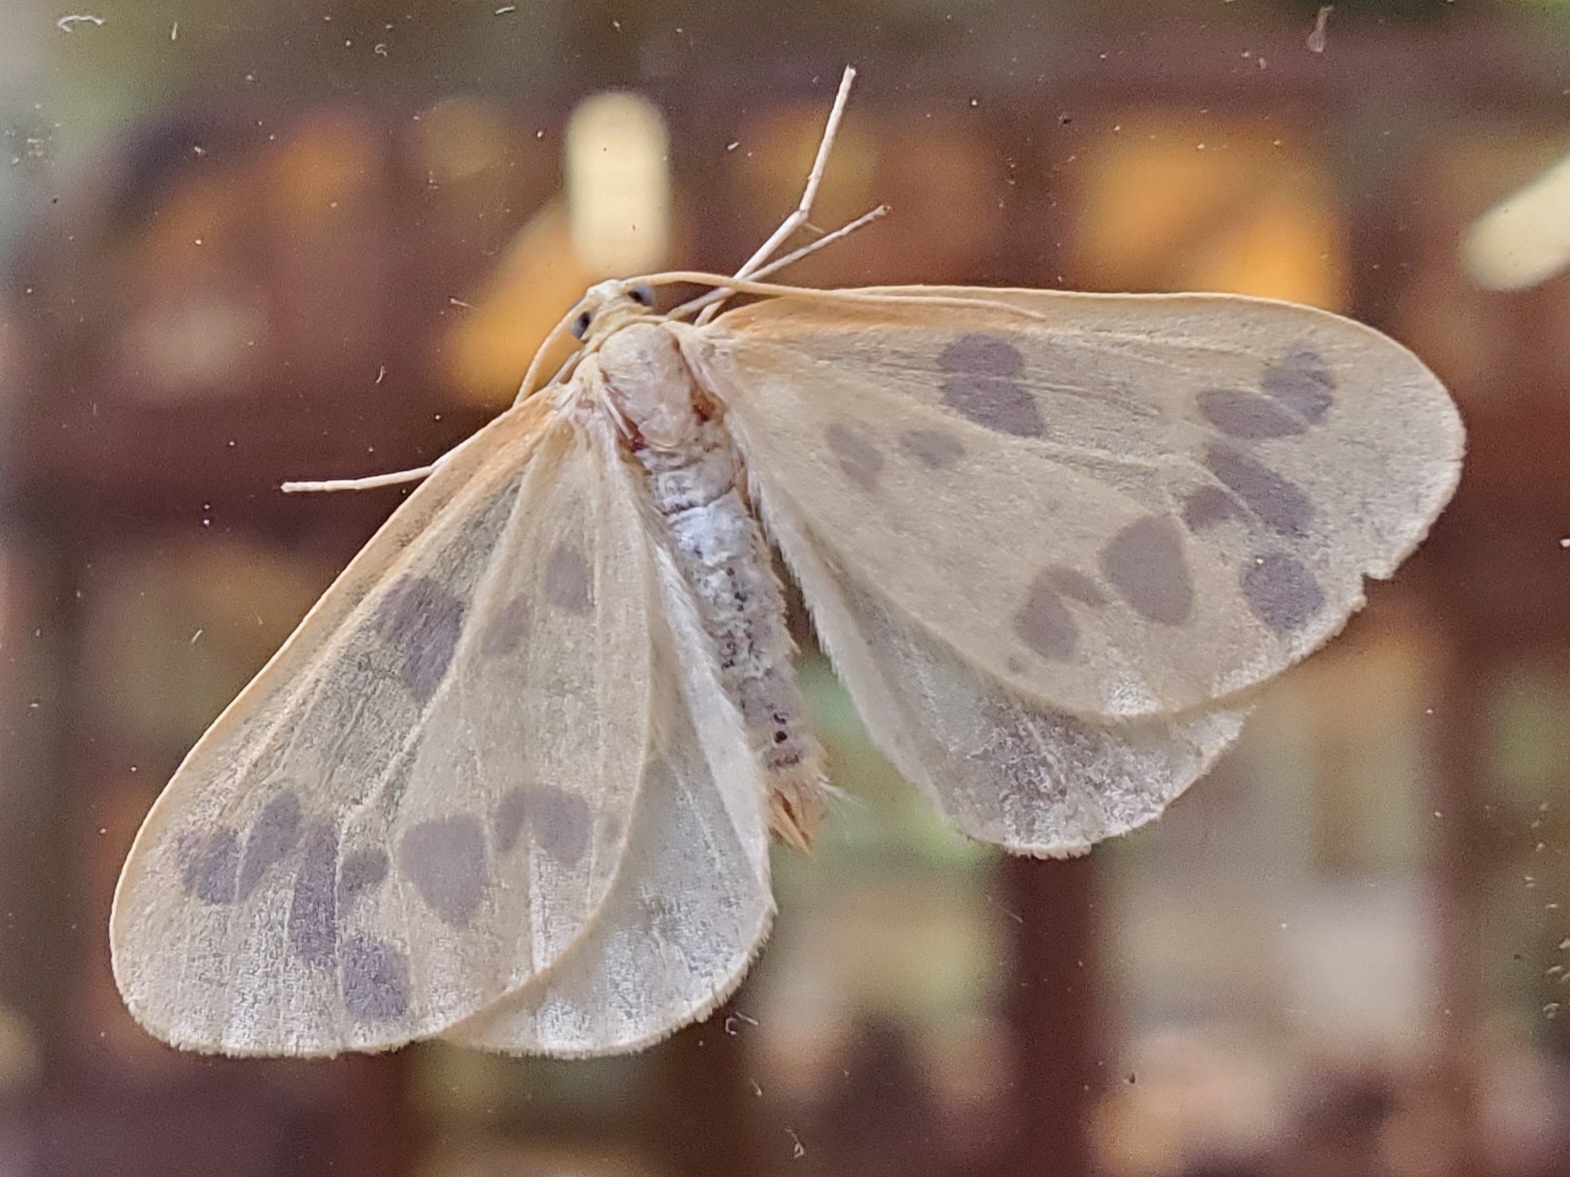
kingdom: Animalia
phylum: Arthropoda
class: Insecta
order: Lepidoptera
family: Geometridae
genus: Eubaphe
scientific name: Eubaphe mendica
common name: Beggar
